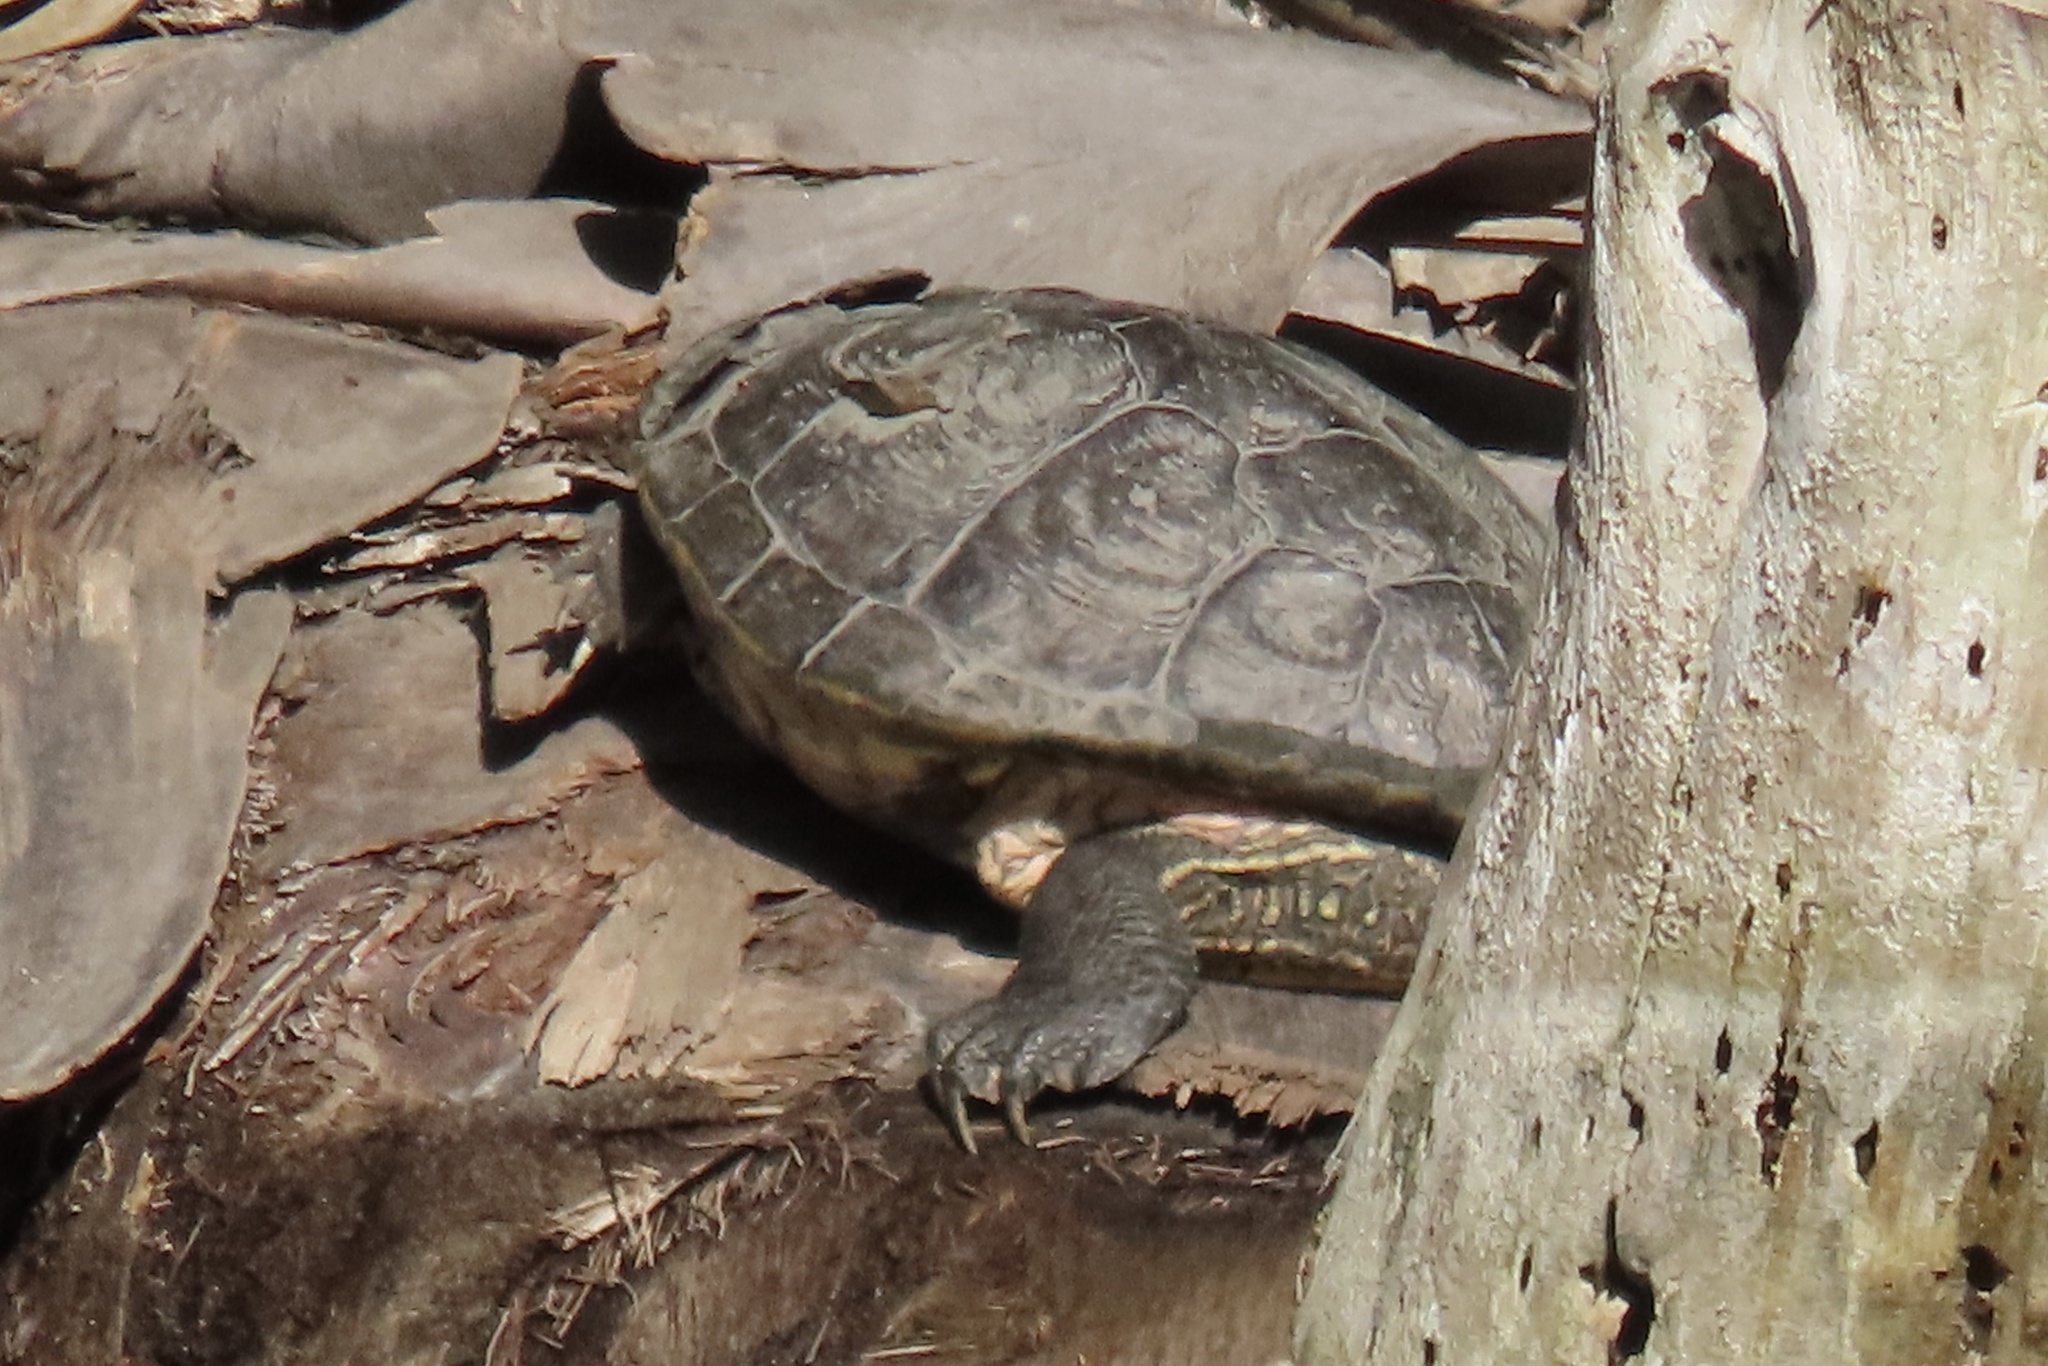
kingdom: Animalia
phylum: Chordata
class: Testudines
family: Emydidae
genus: Trachemys
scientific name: Trachemys scripta
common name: Slider
